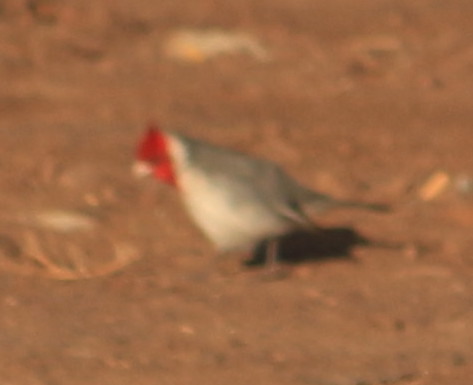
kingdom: Animalia
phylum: Chordata
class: Aves
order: Passeriformes
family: Thraupidae
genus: Paroaria
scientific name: Paroaria coronata
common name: Red-crested cardinal
